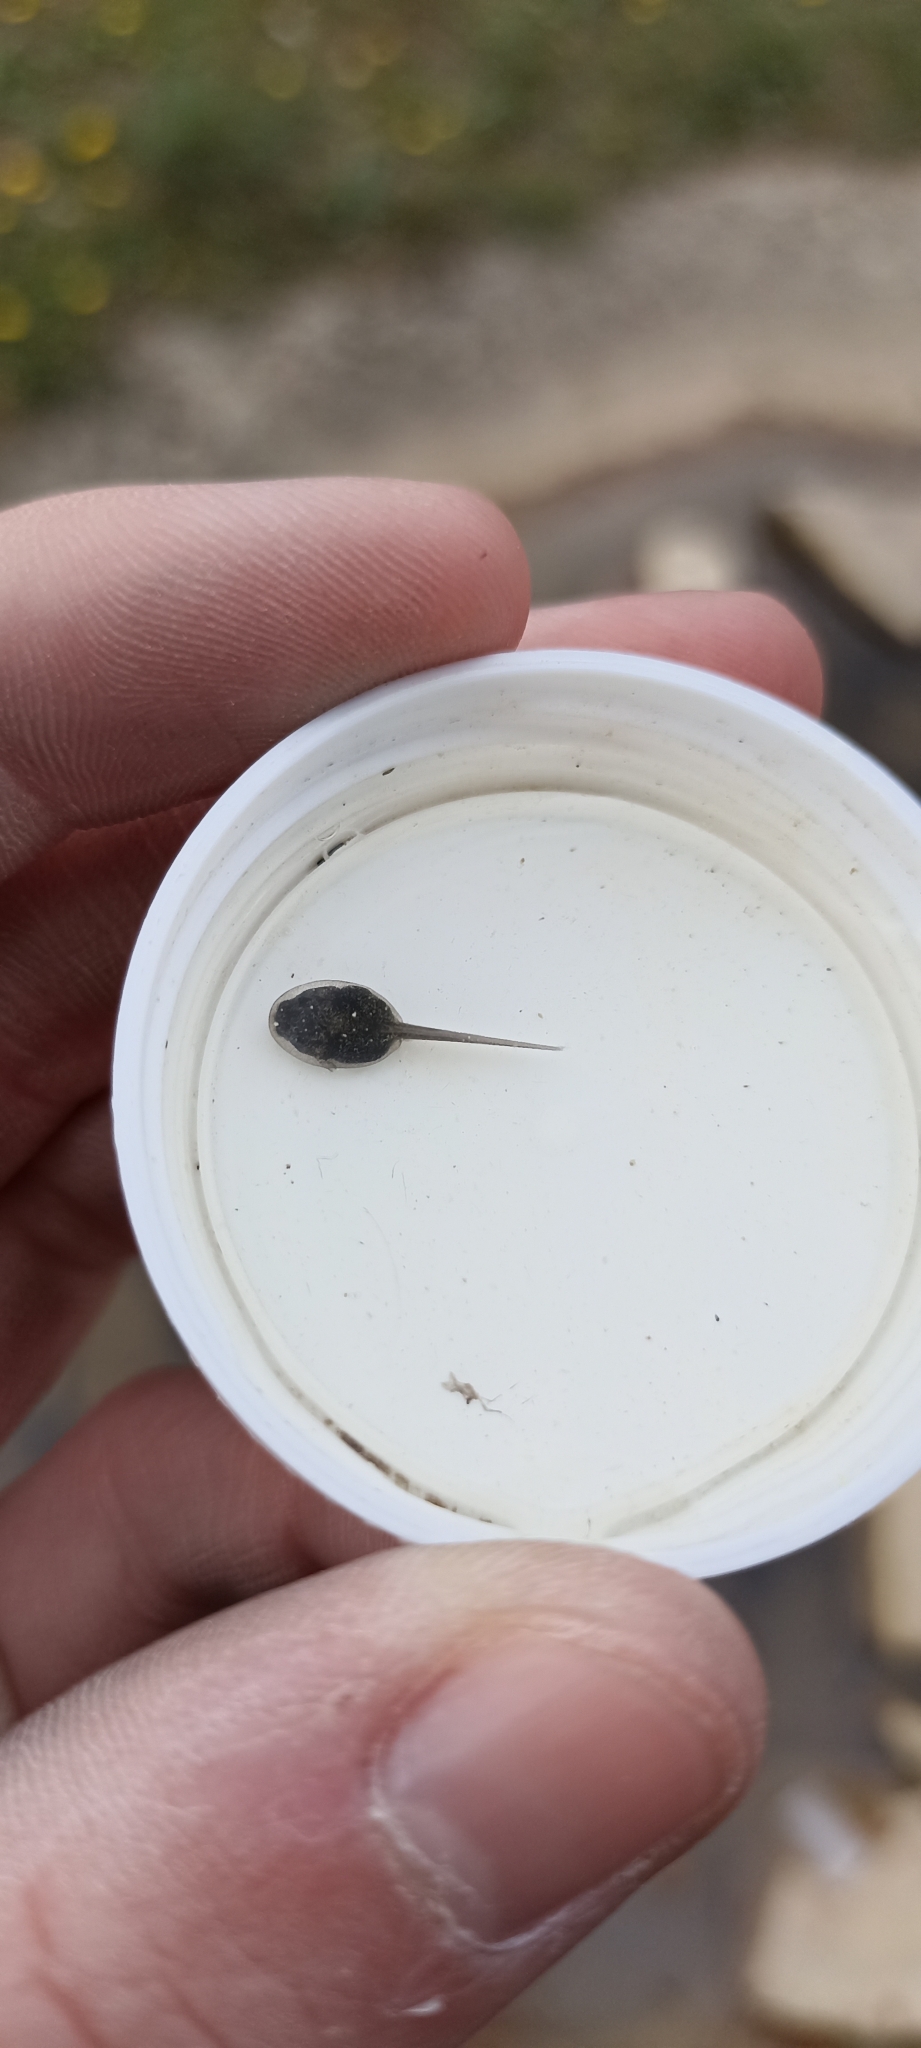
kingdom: Animalia
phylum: Chordata
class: Amphibia
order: Anura
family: Pelodytidae
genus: Pelodytes
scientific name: Pelodytes punctatus
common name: Parsley frog
